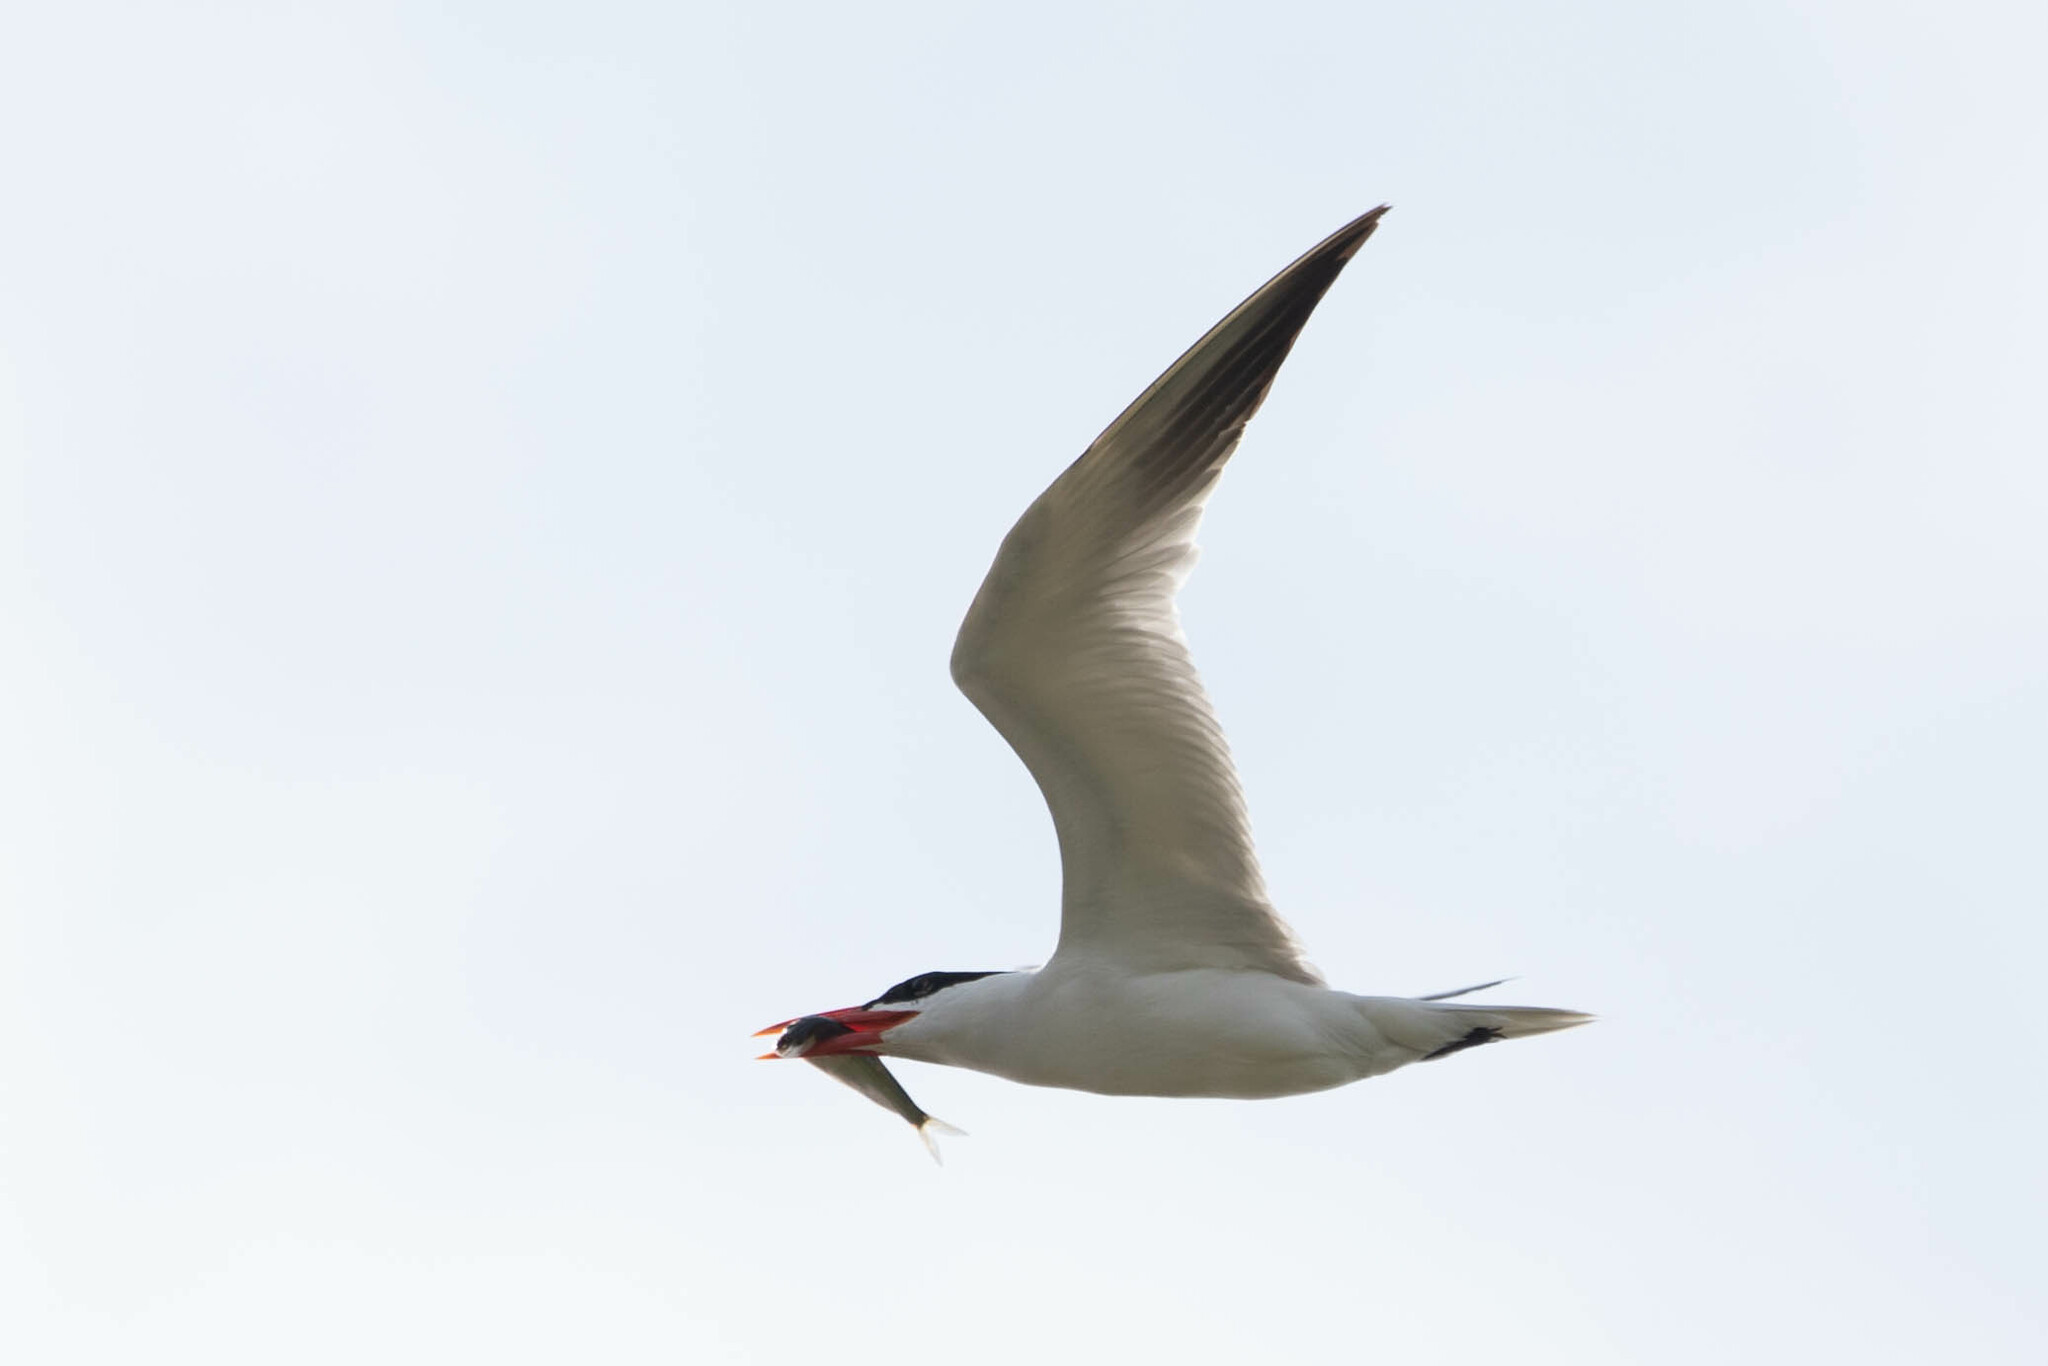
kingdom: Animalia
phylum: Chordata
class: Aves
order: Charadriiformes
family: Laridae
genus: Hydroprogne
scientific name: Hydroprogne caspia
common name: Caspian tern
